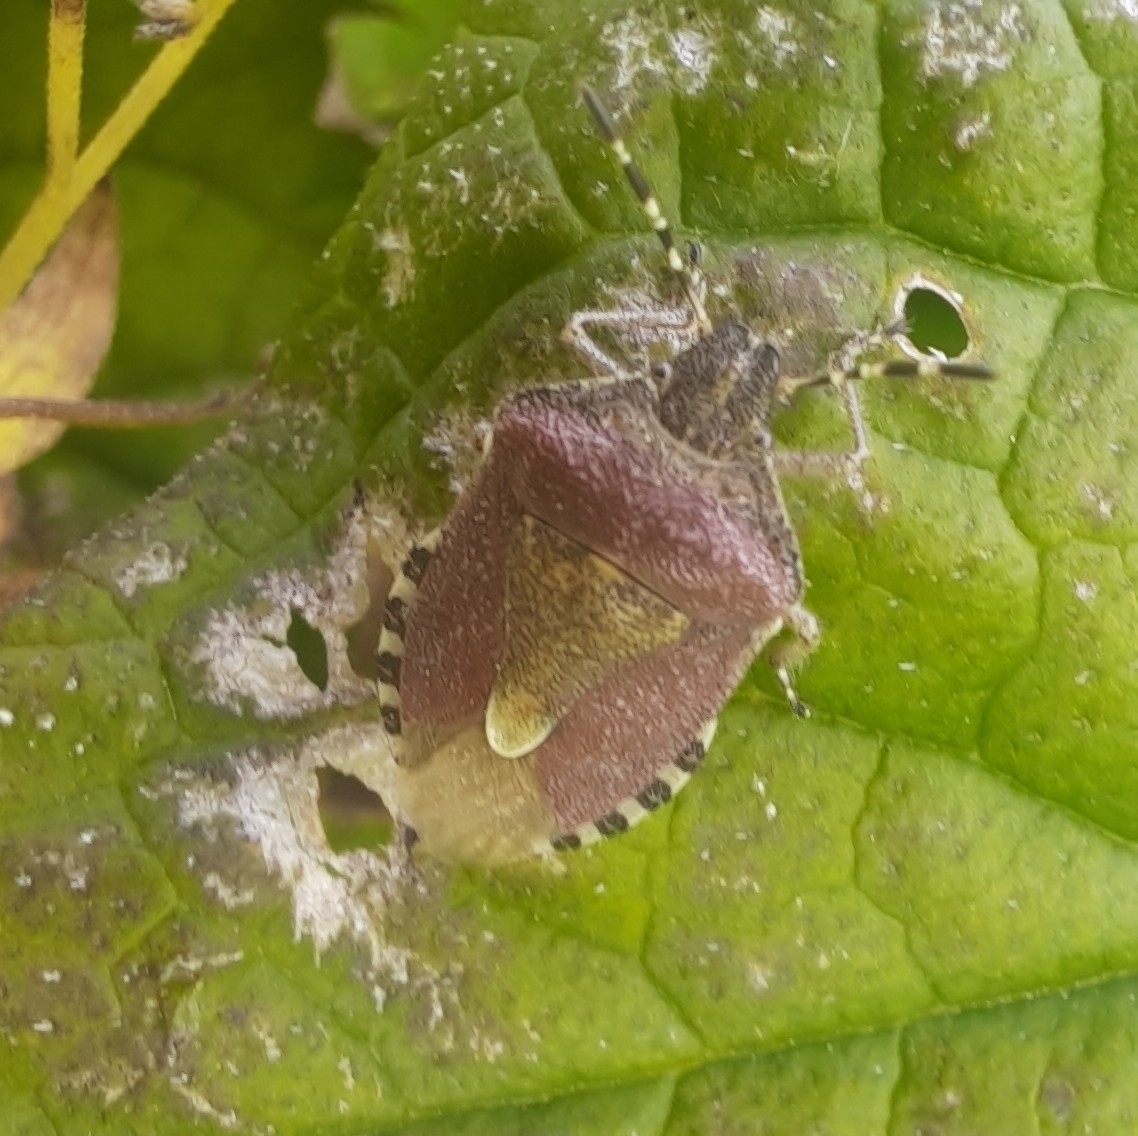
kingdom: Animalia
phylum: Arthropoda
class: Insecta
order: Hemiptera
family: Pentatomidae
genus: Dolycoris
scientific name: Dolycoris baccarum
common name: Sloe bug
